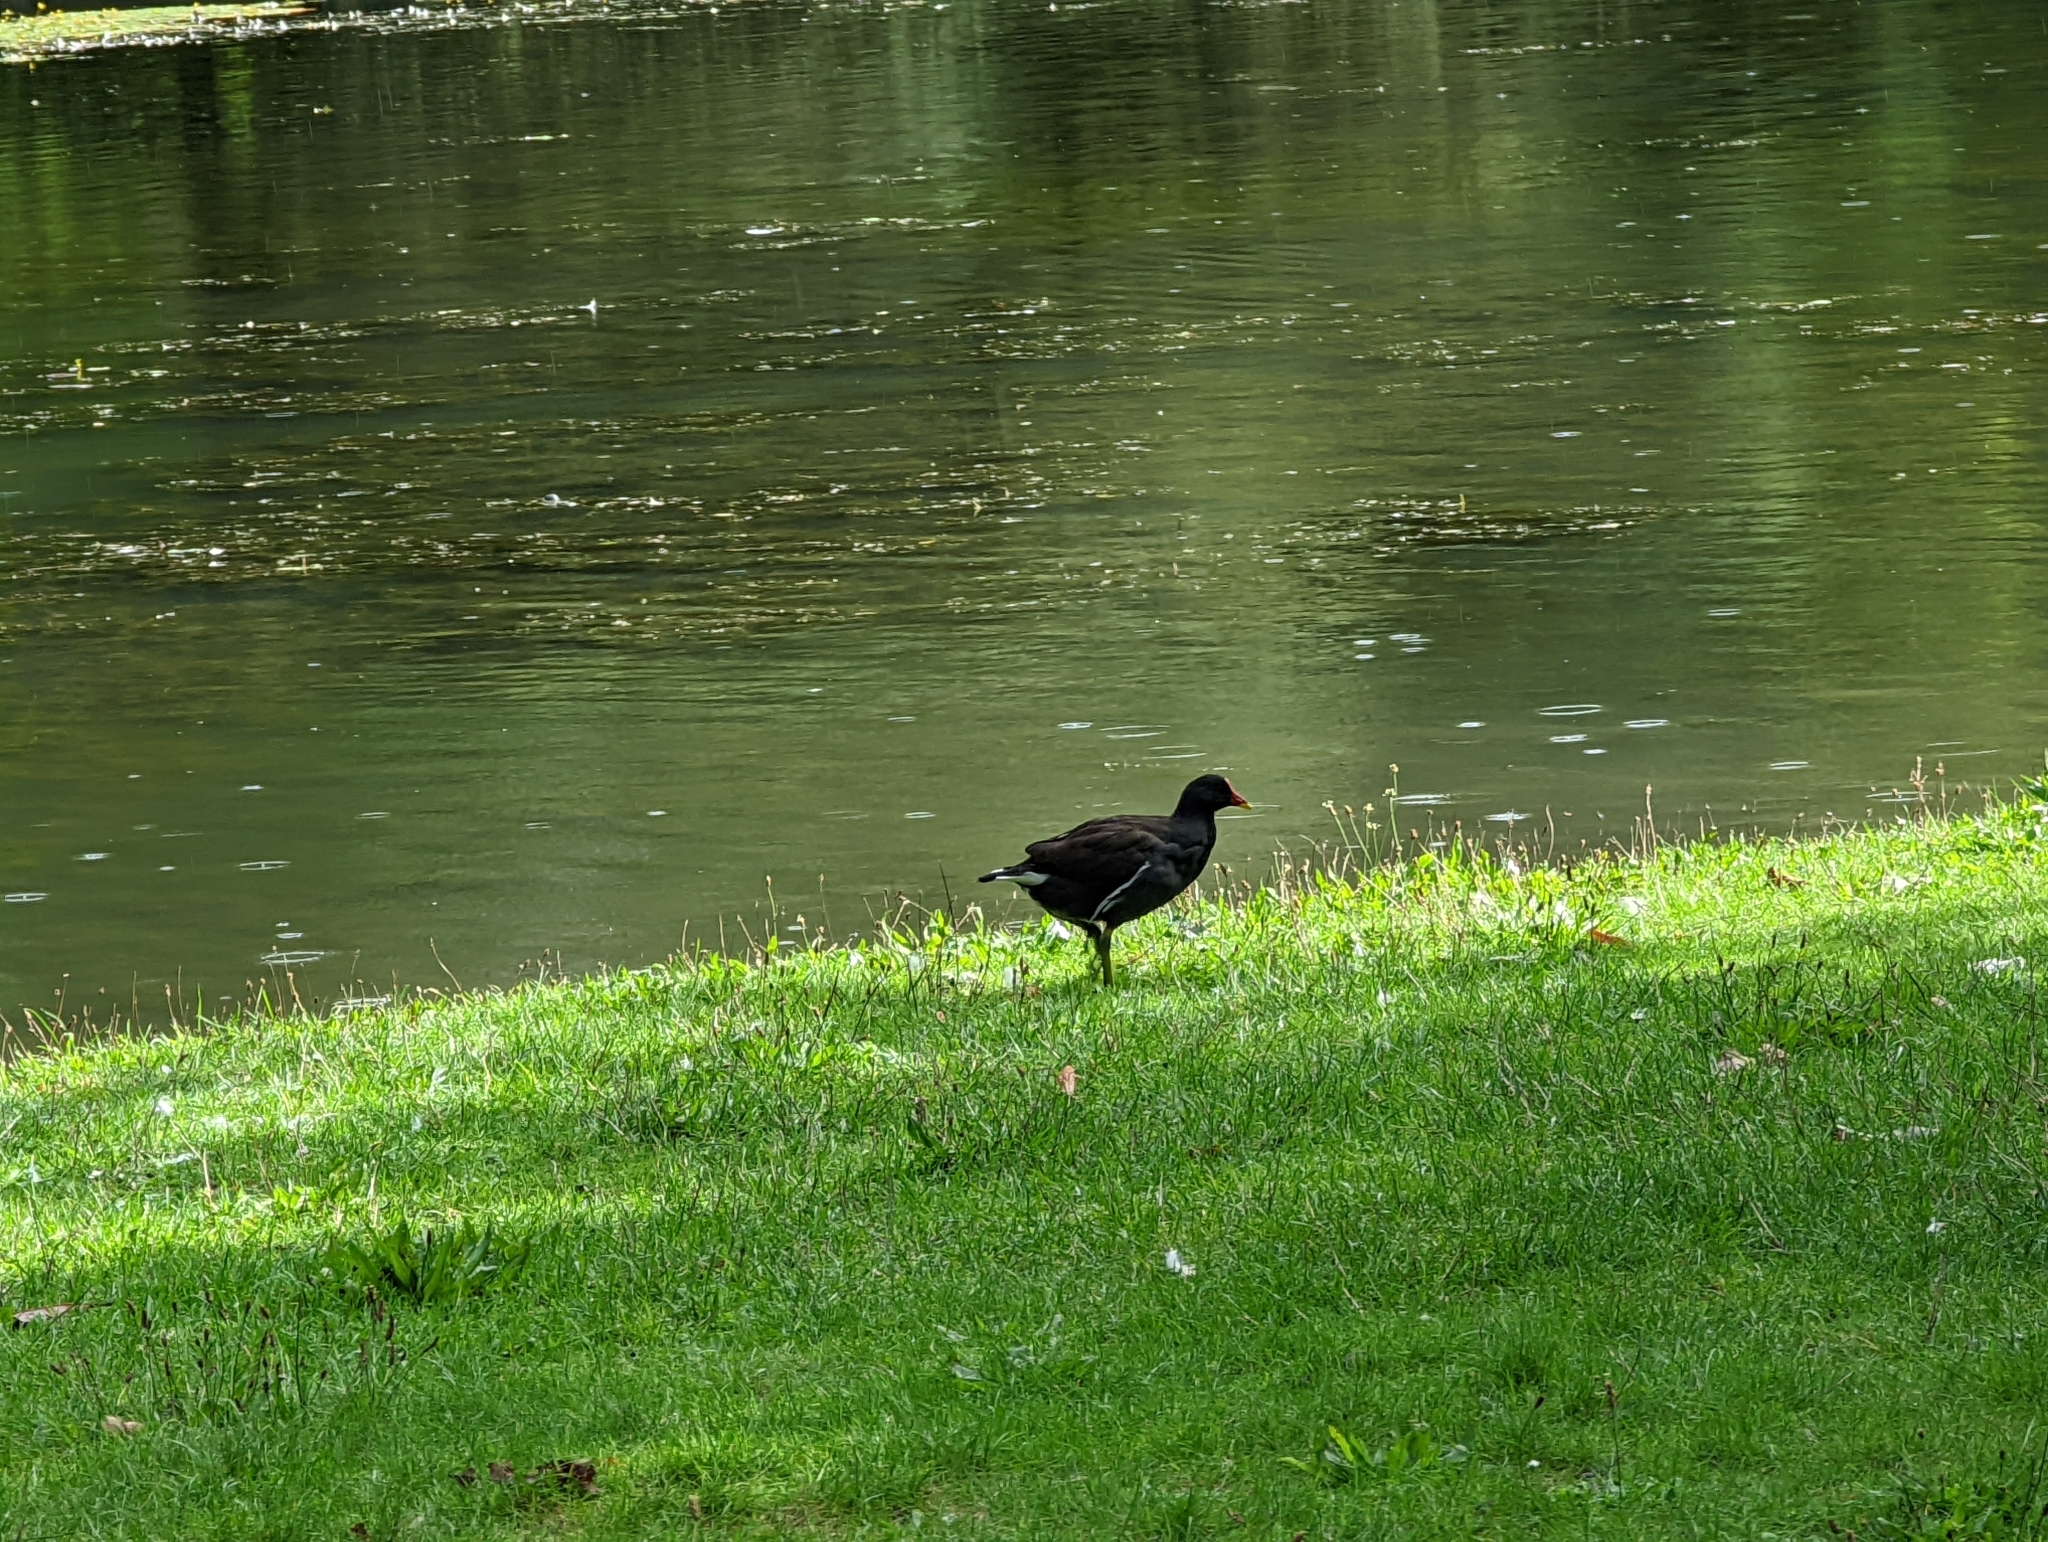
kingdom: Animalia
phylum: Chordata
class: Aves
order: Gruiformes
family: Rallidae
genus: Gallinula
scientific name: Gallinula chloropus
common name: Common moorhen
